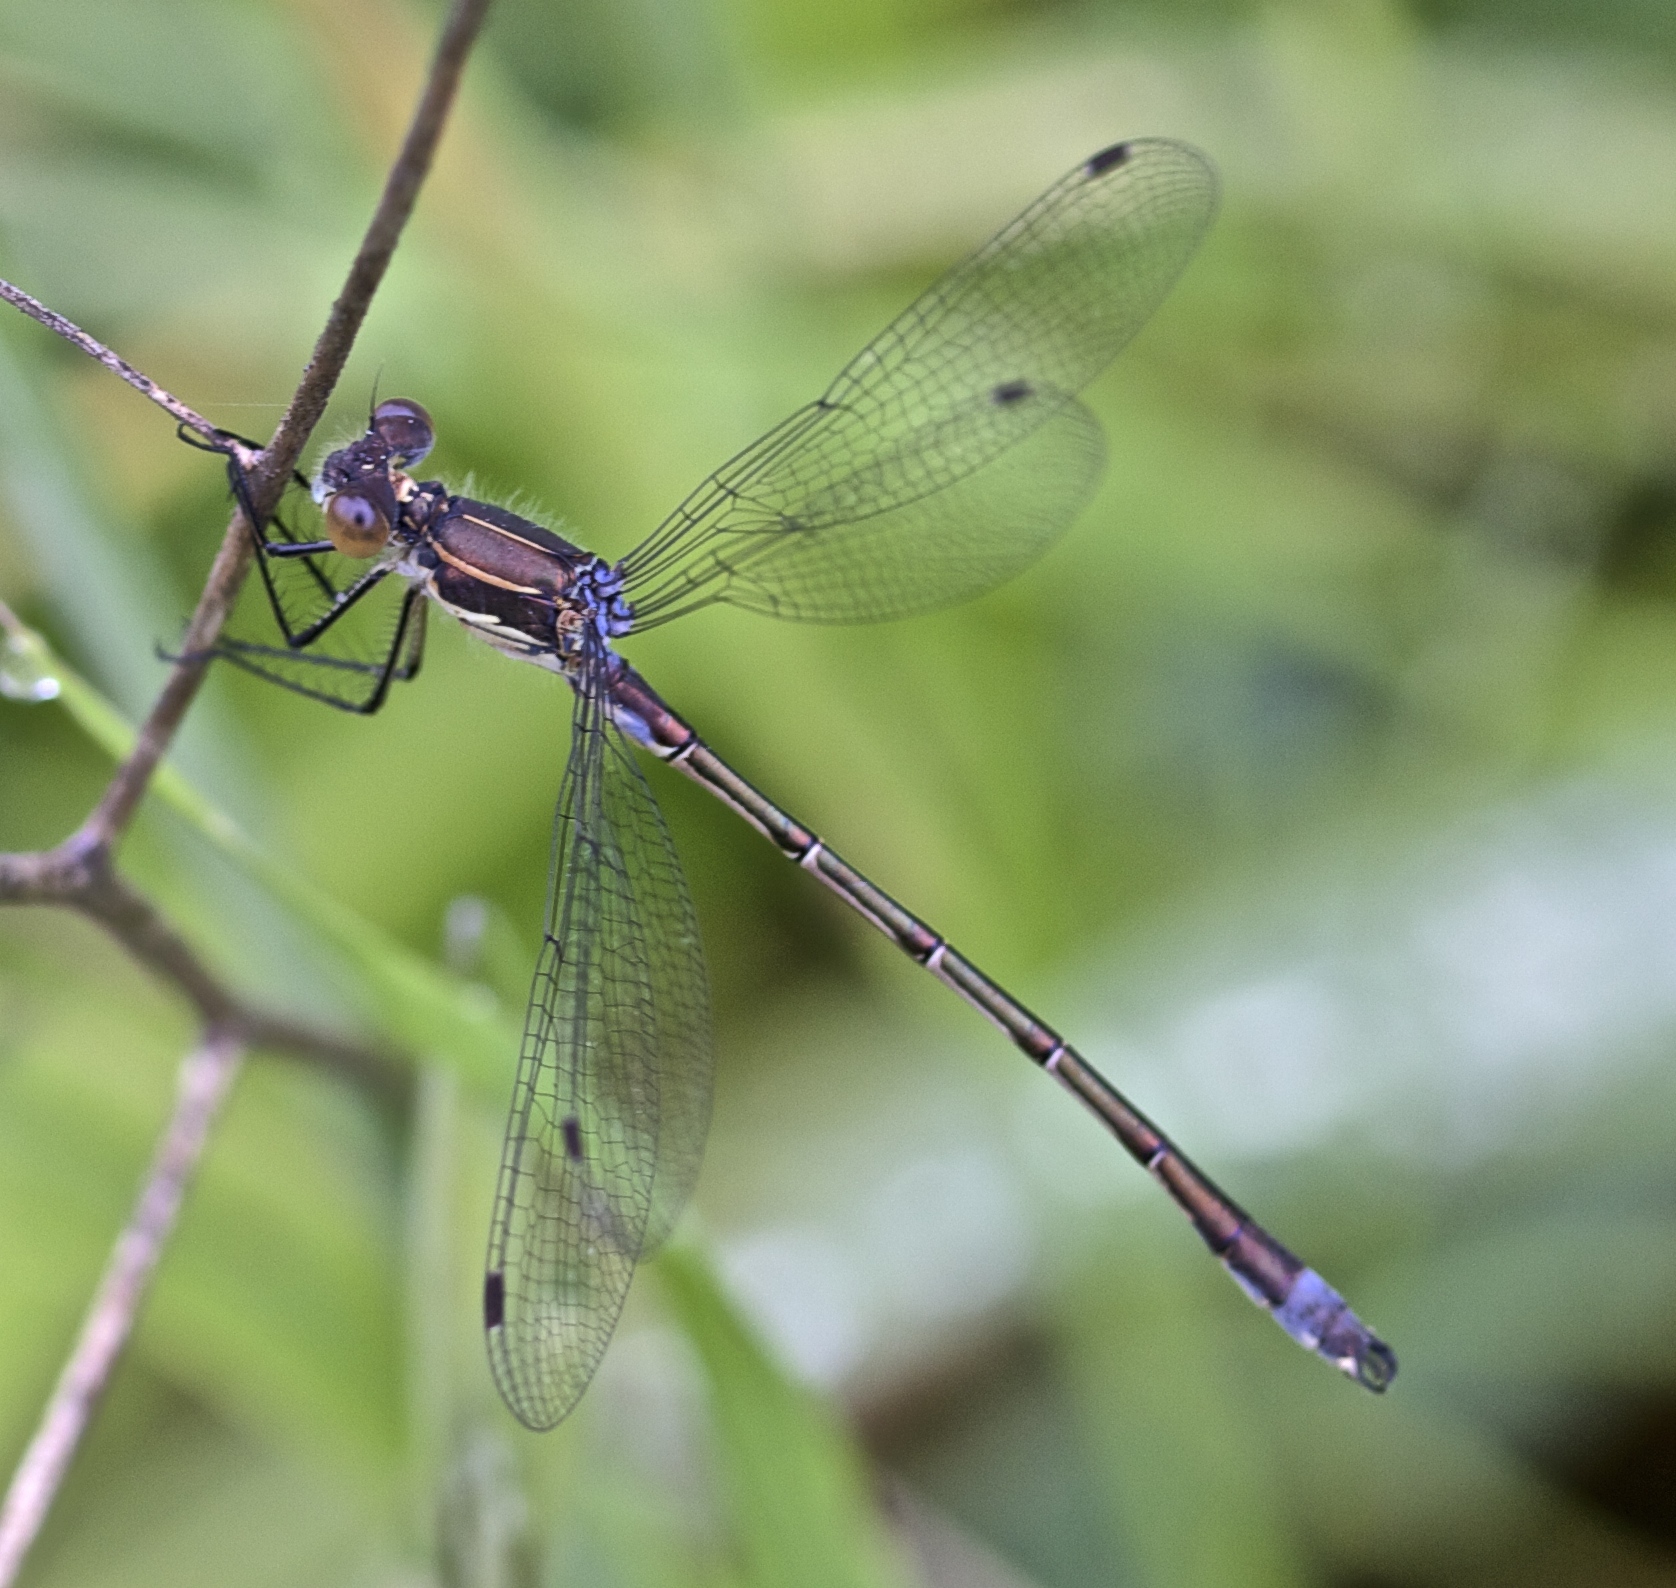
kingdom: Animalia
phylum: Arthropoda
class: Insecta
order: Odonata
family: Lestidae
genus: Lestes
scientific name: Lestes stultus
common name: Black spreadwing
